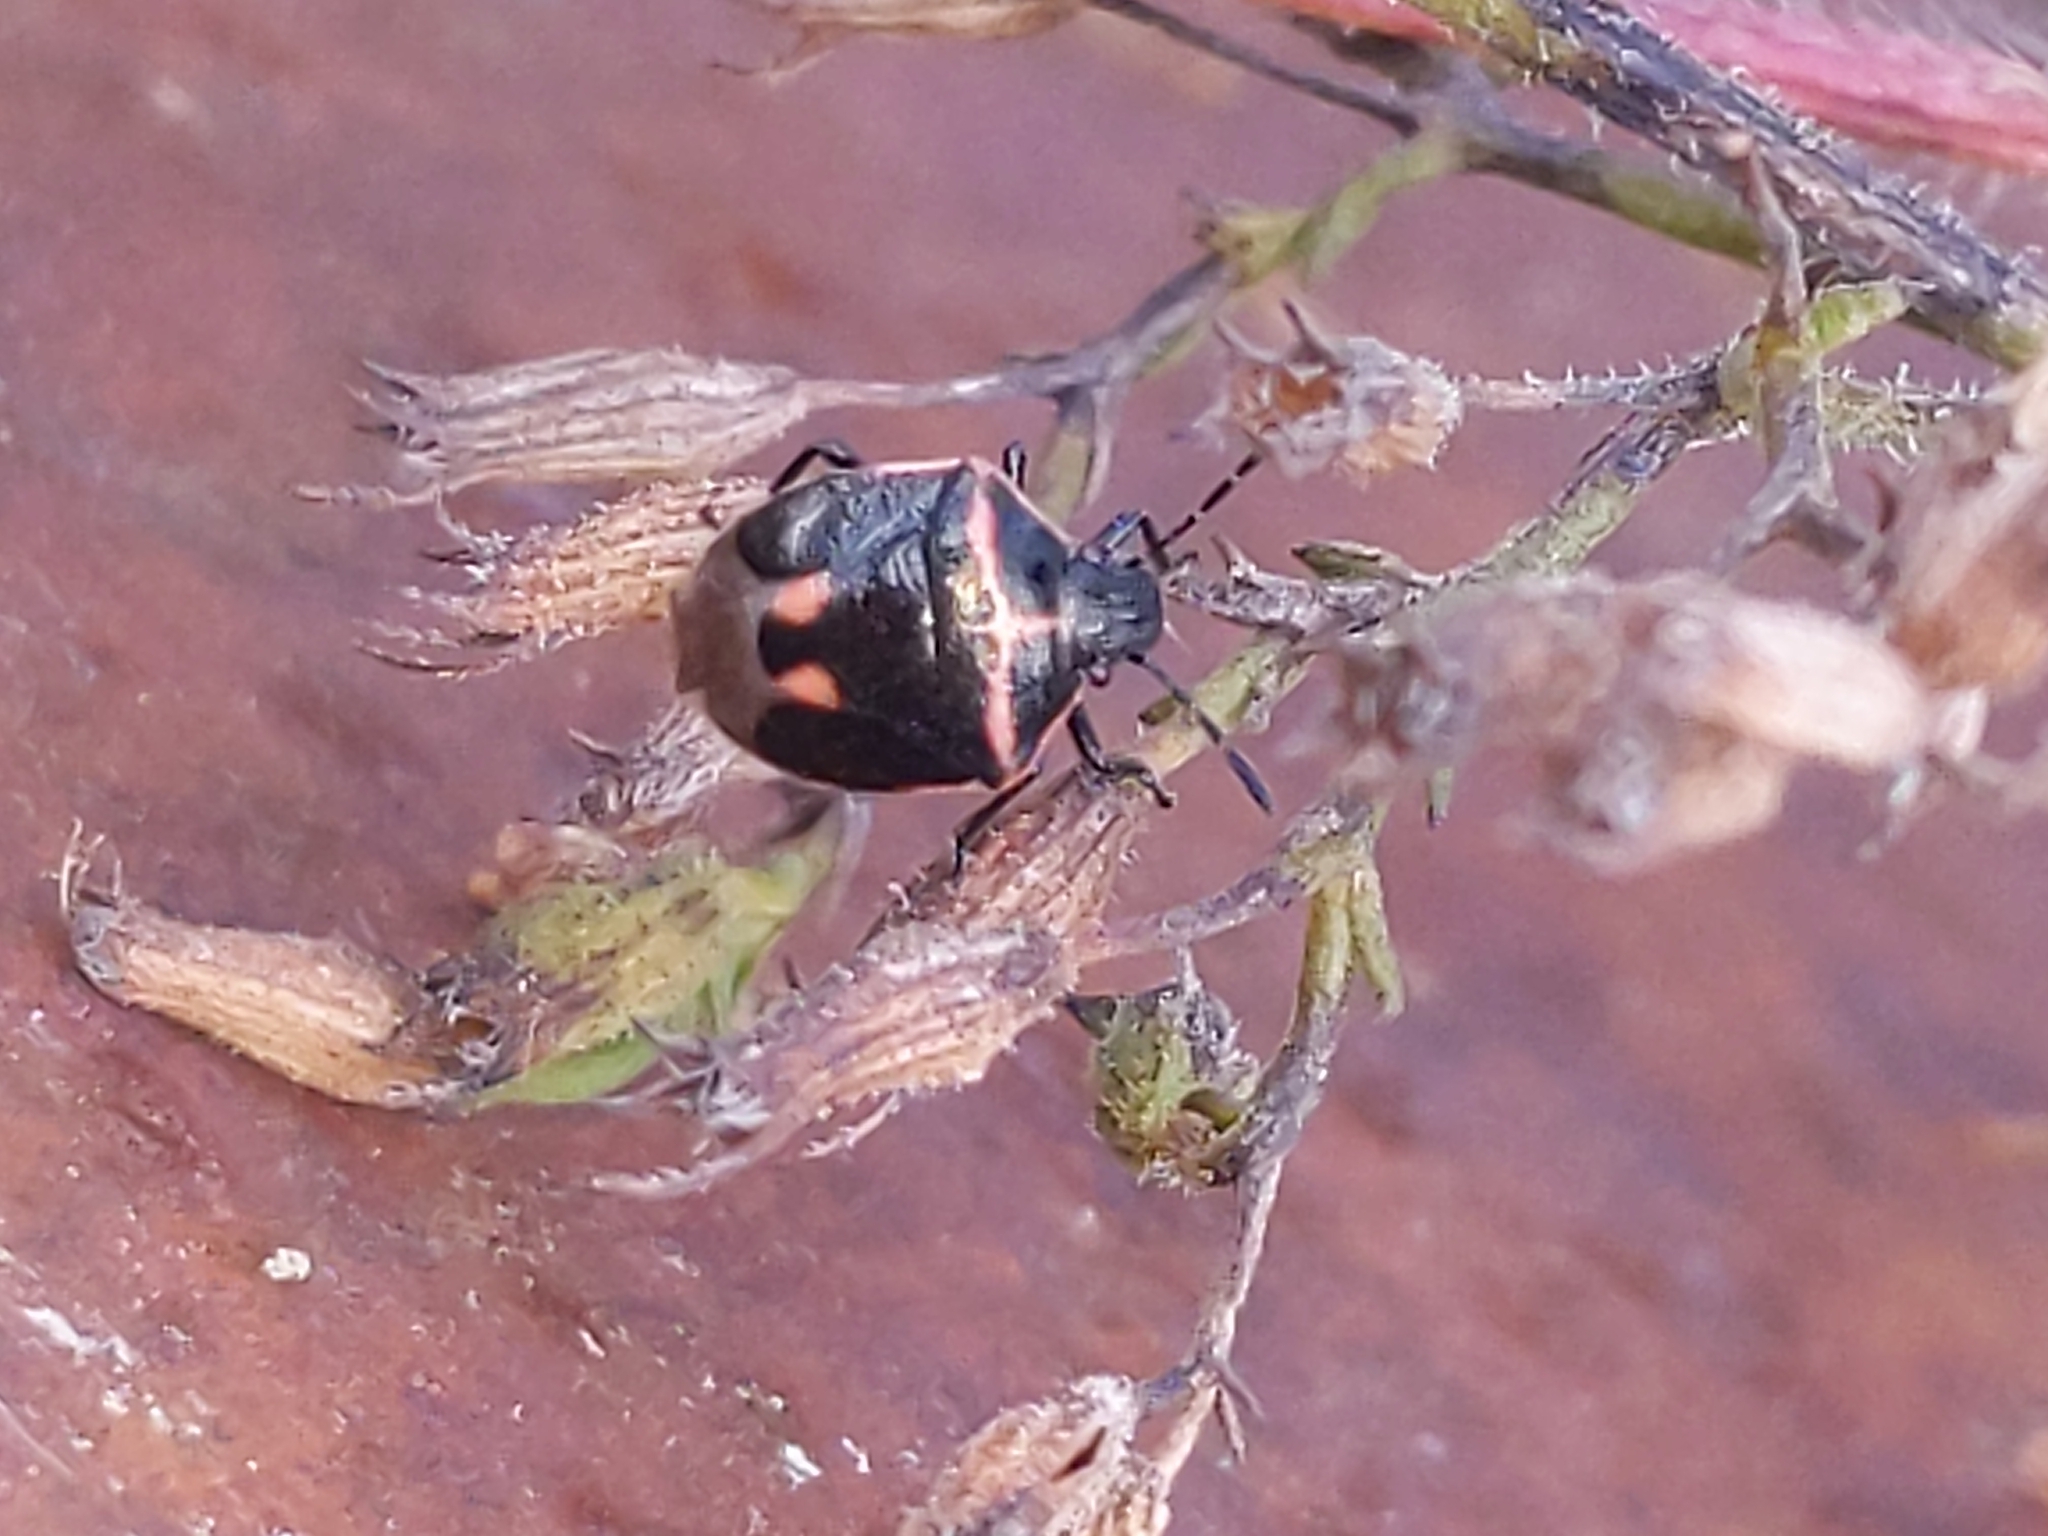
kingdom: Animalia
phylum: Arthropoda
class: Insecta
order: Hemiptera
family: Pentatomidae
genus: Cosmopepla
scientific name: Cosmopepla lintneriana
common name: Twice-stabbed stink bug
